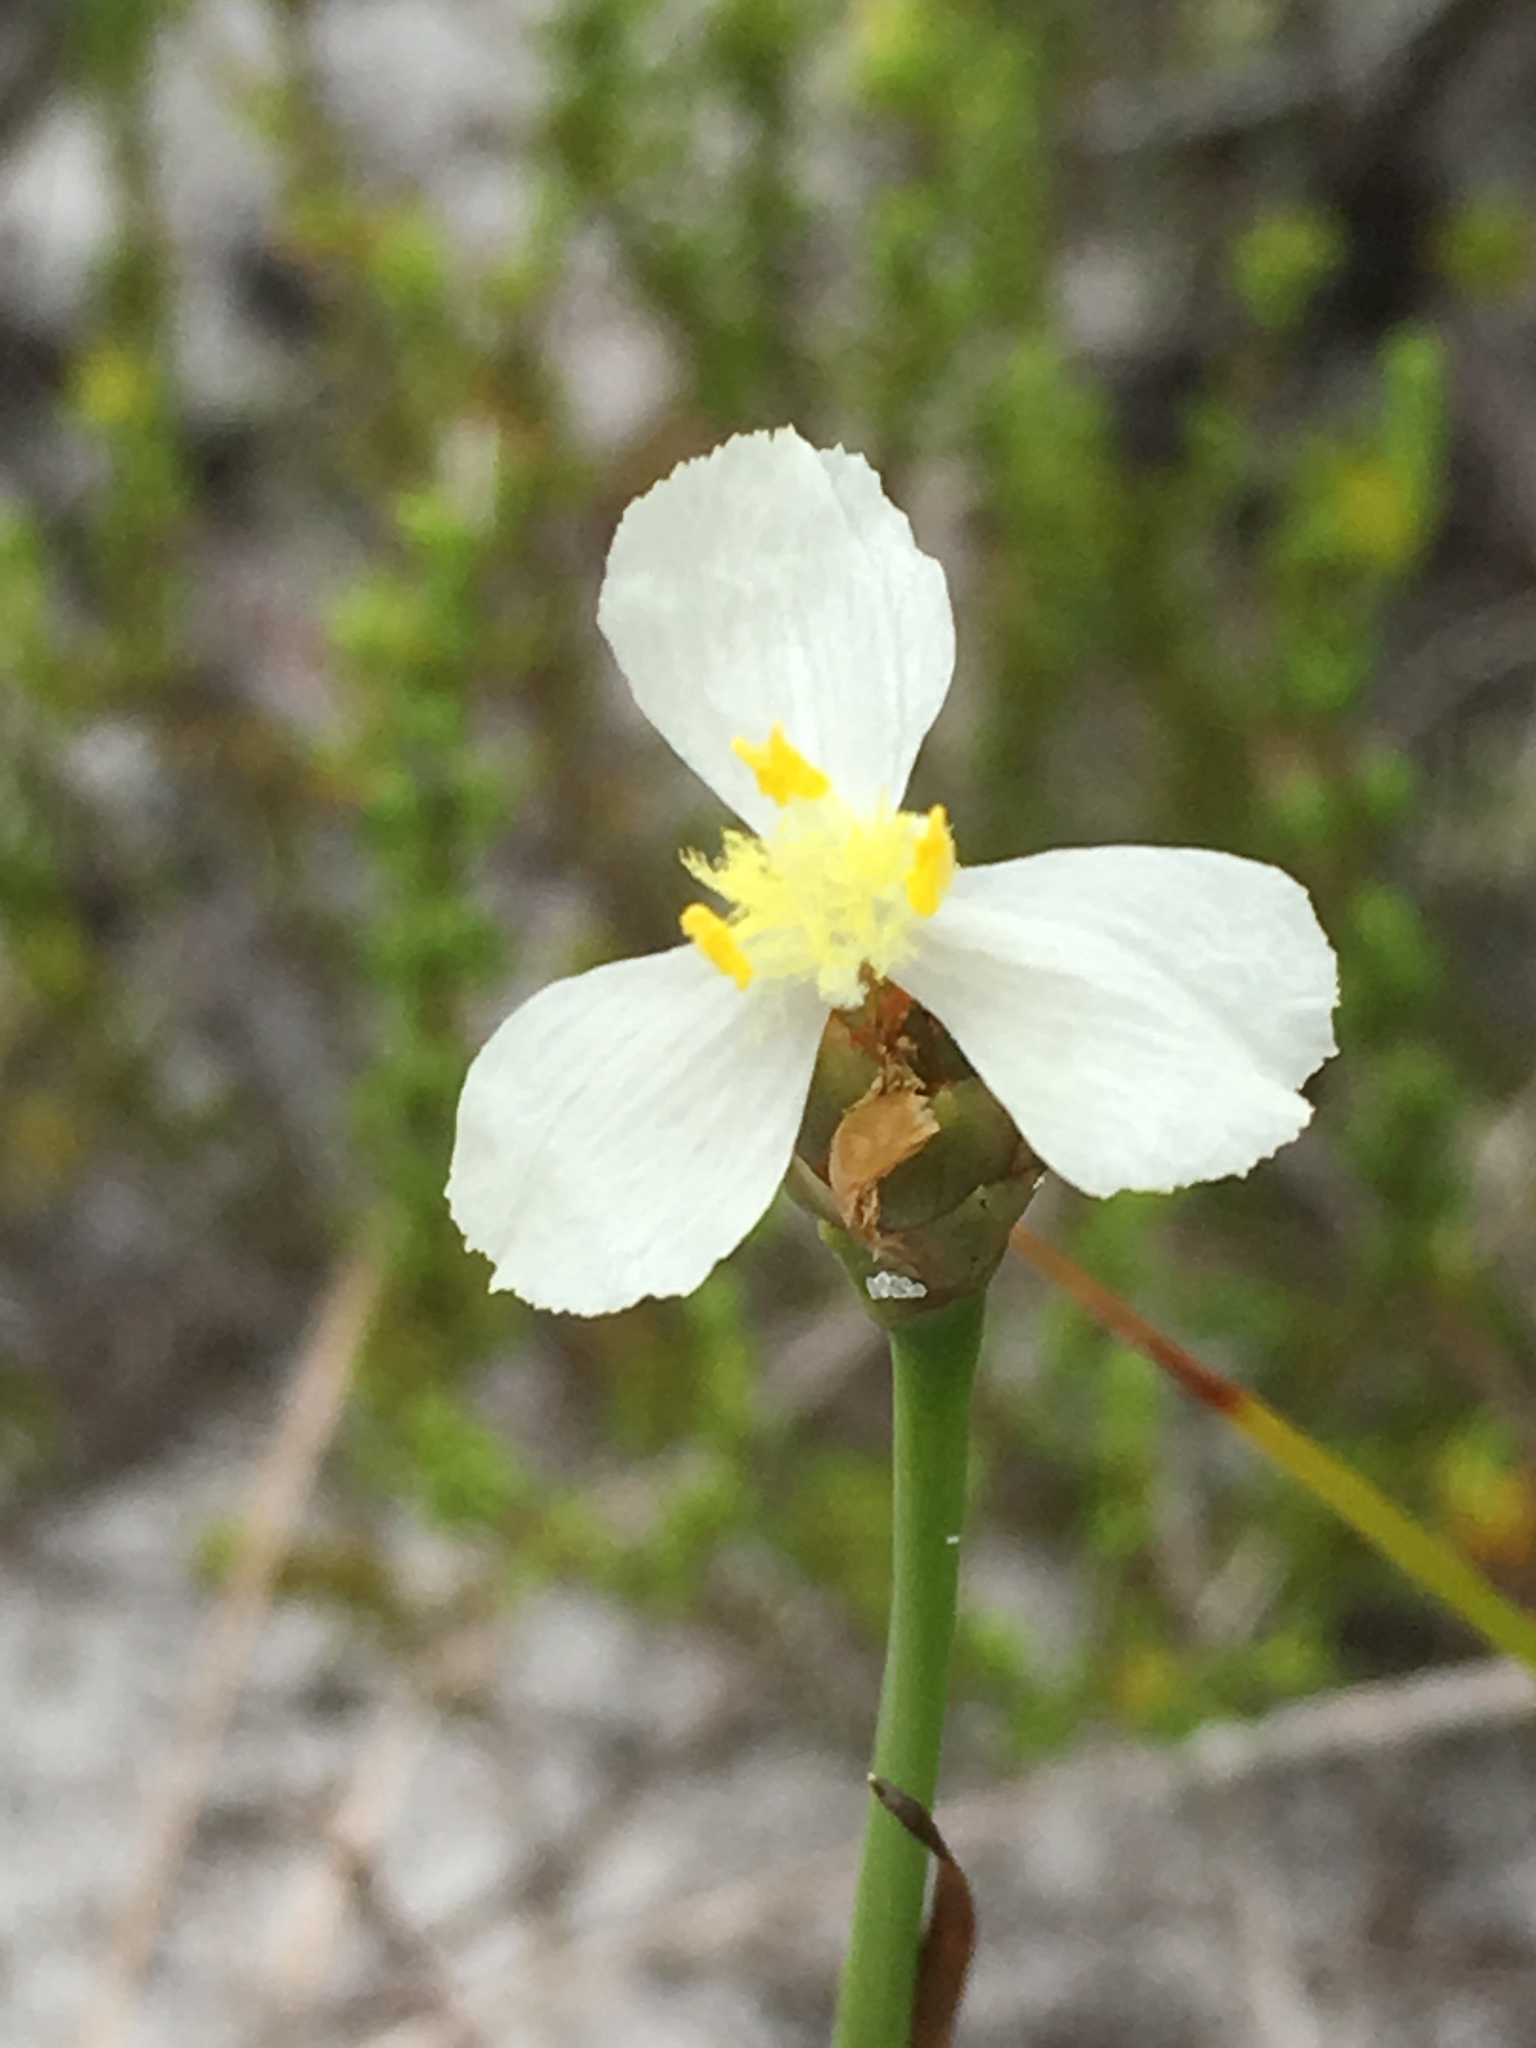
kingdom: Plantae
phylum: Tracheophyta
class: Liliopsida
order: Poales
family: Xyridaceae
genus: Xyris
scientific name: Xyris caroliniana
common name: Carolina yellow-eyed-grass
